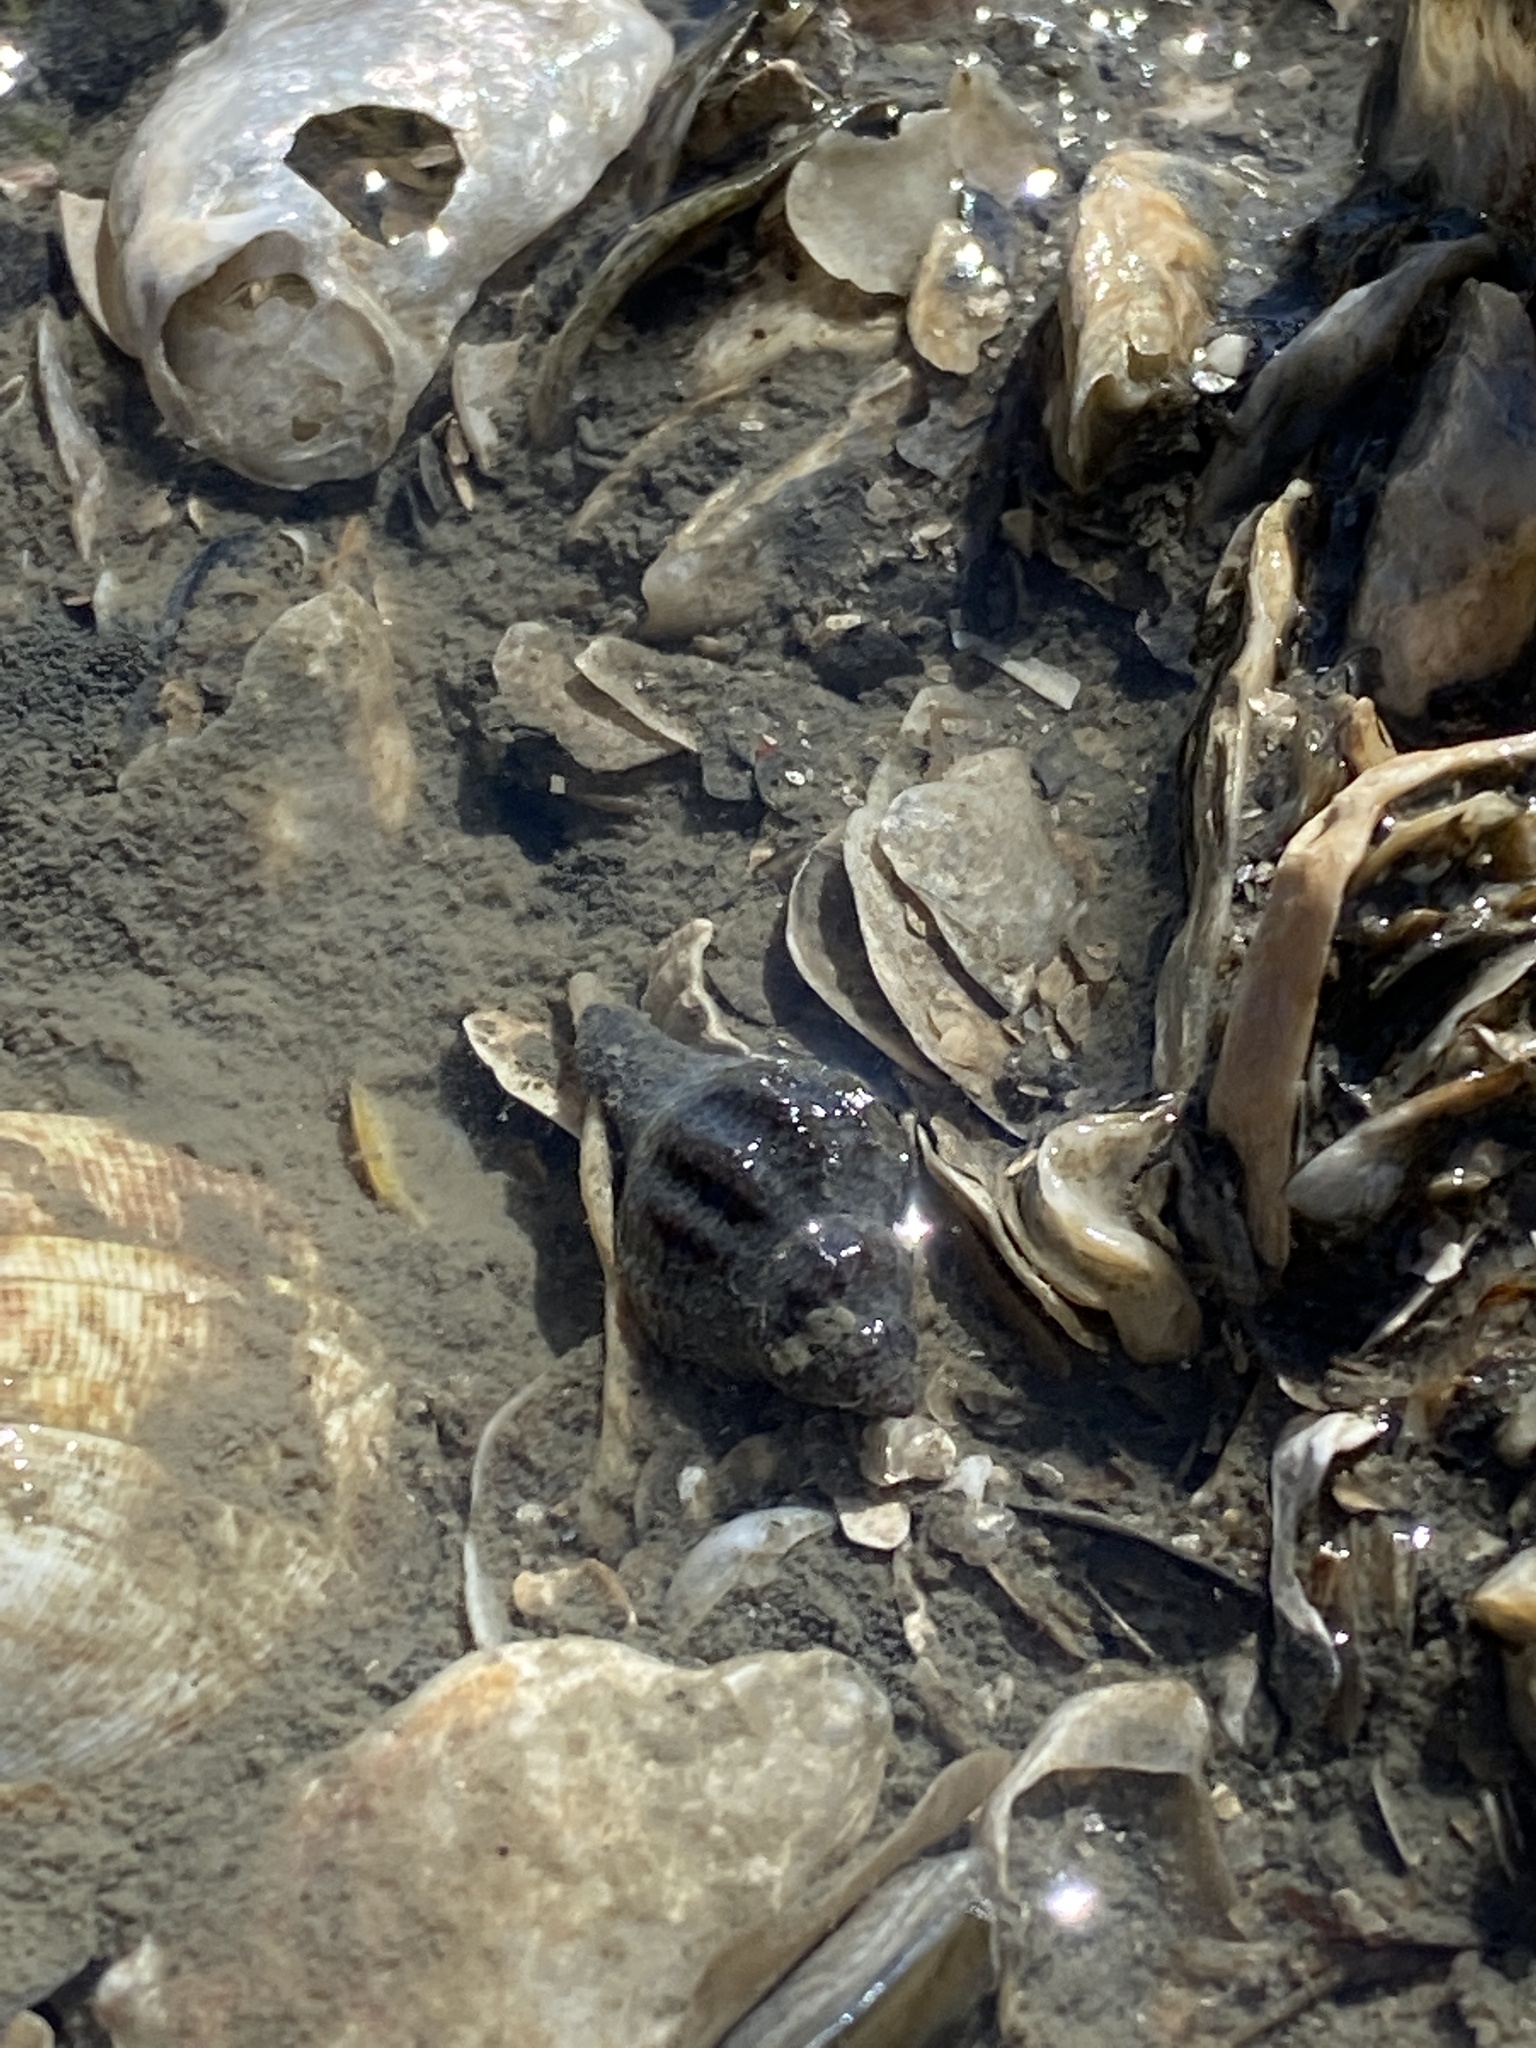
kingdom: Animalia
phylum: Mollusca
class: Gastropoda
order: Neogastropoda
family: Muricidae
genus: Urosalpinx
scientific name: Urosalpinx cinerea
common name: American sting winkle
